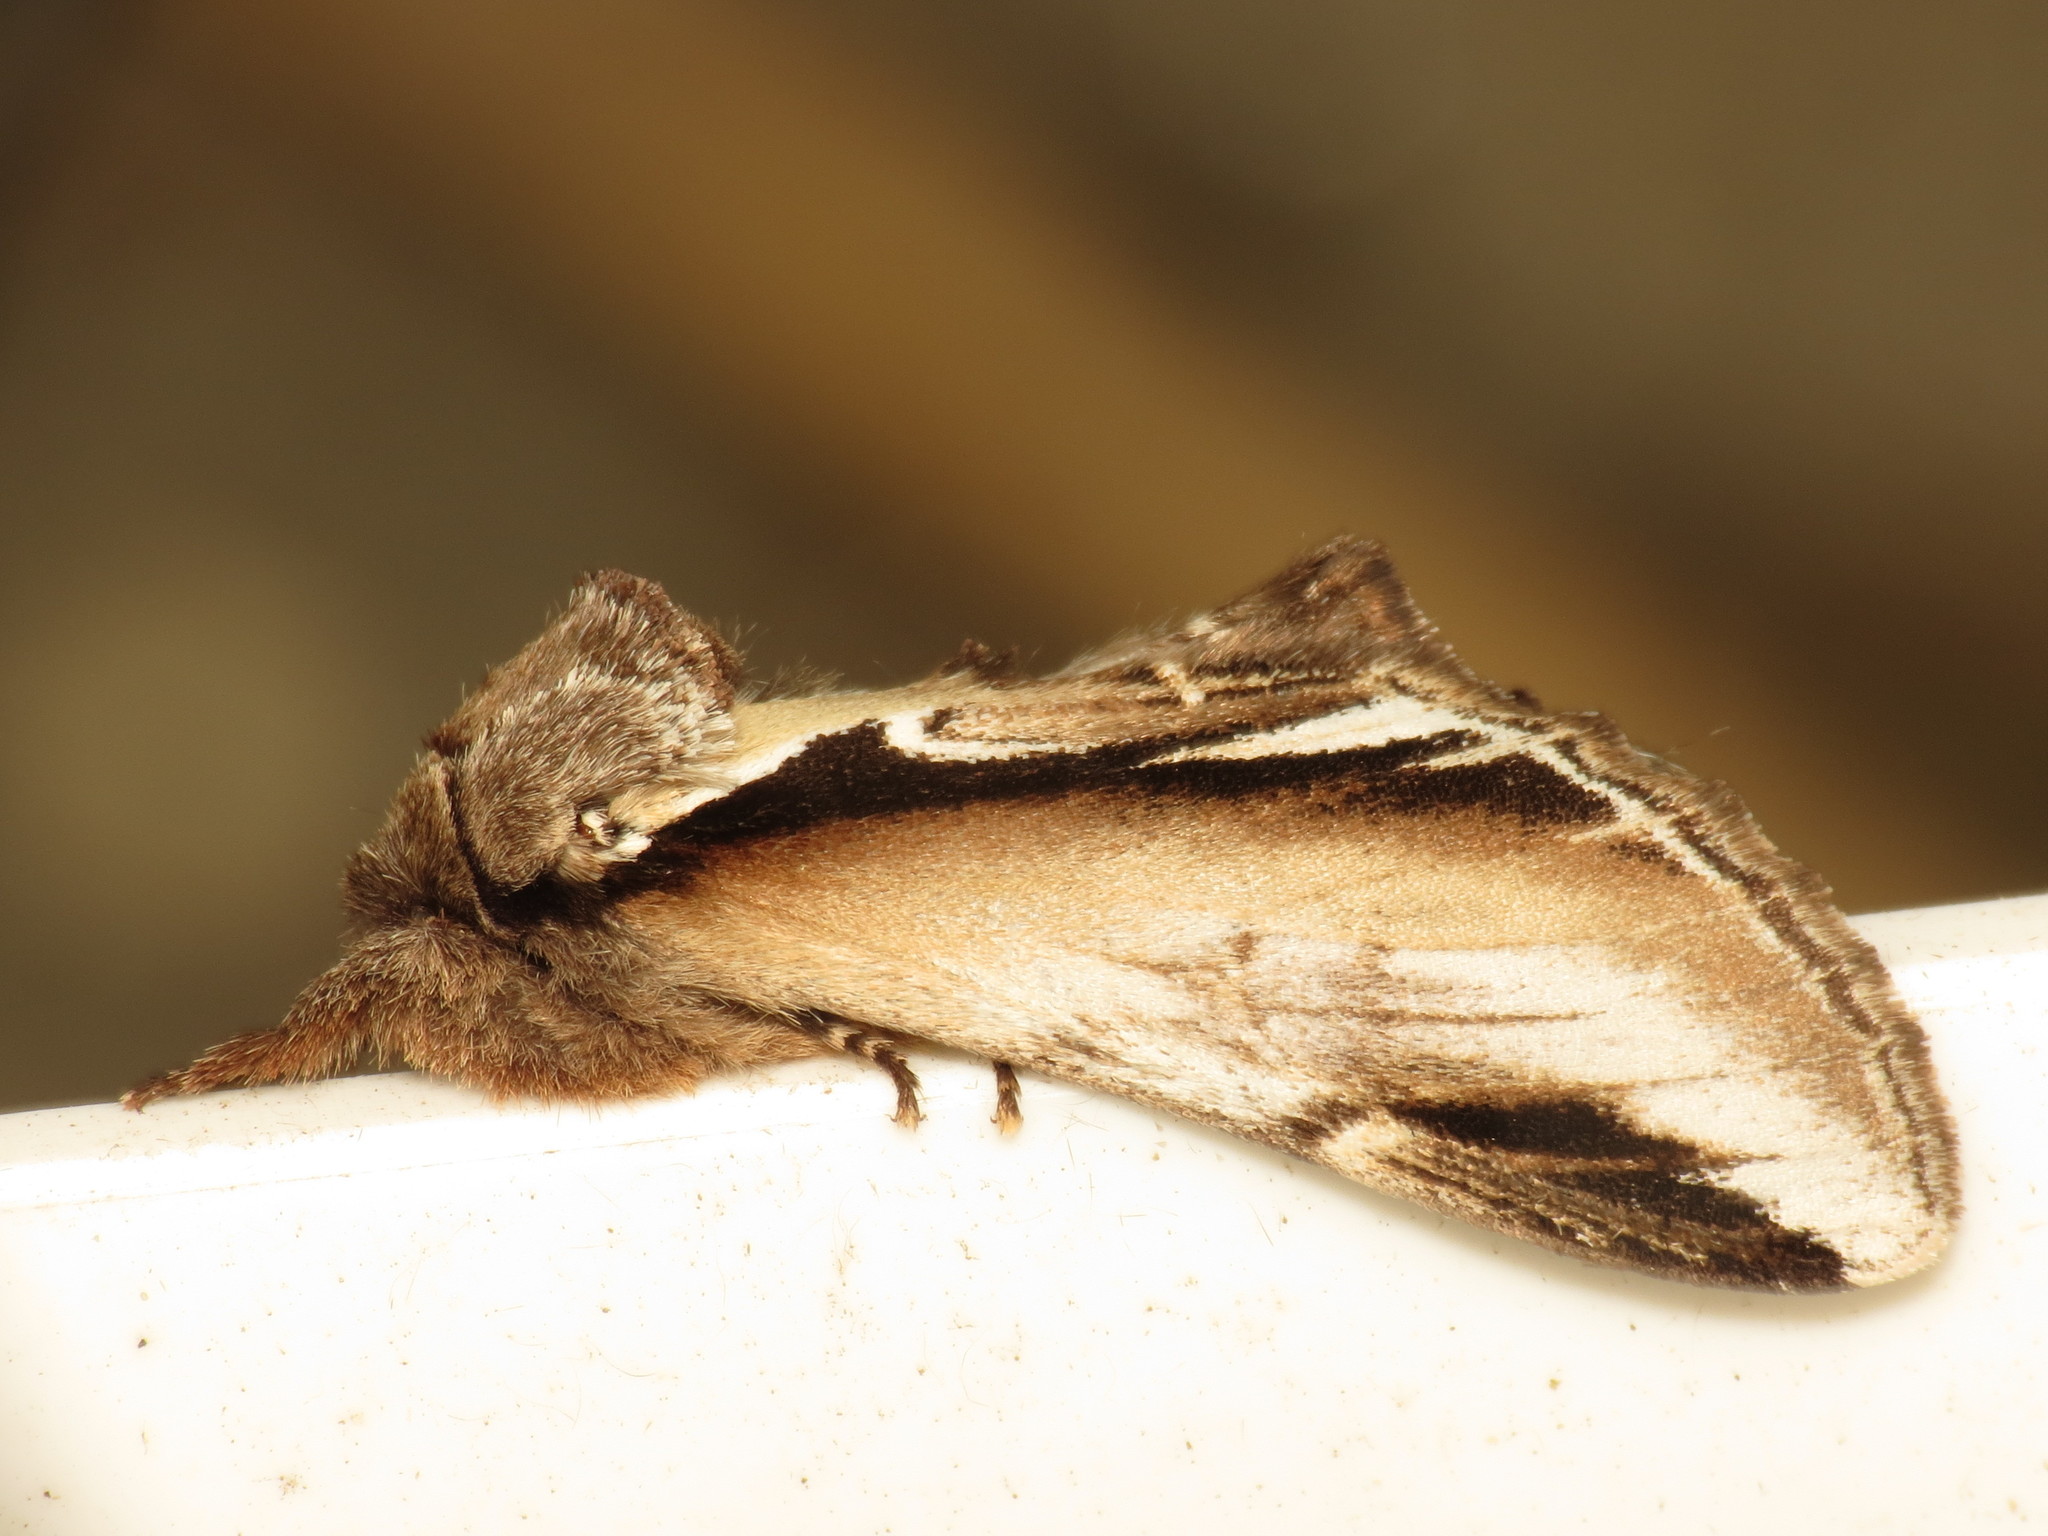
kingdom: Animalia
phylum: Arthropoda
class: Insecta
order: Lepidoptera
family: Notodontidae
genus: Pheosia
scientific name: Pheosia gnoma
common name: Lesser swallow prominent
